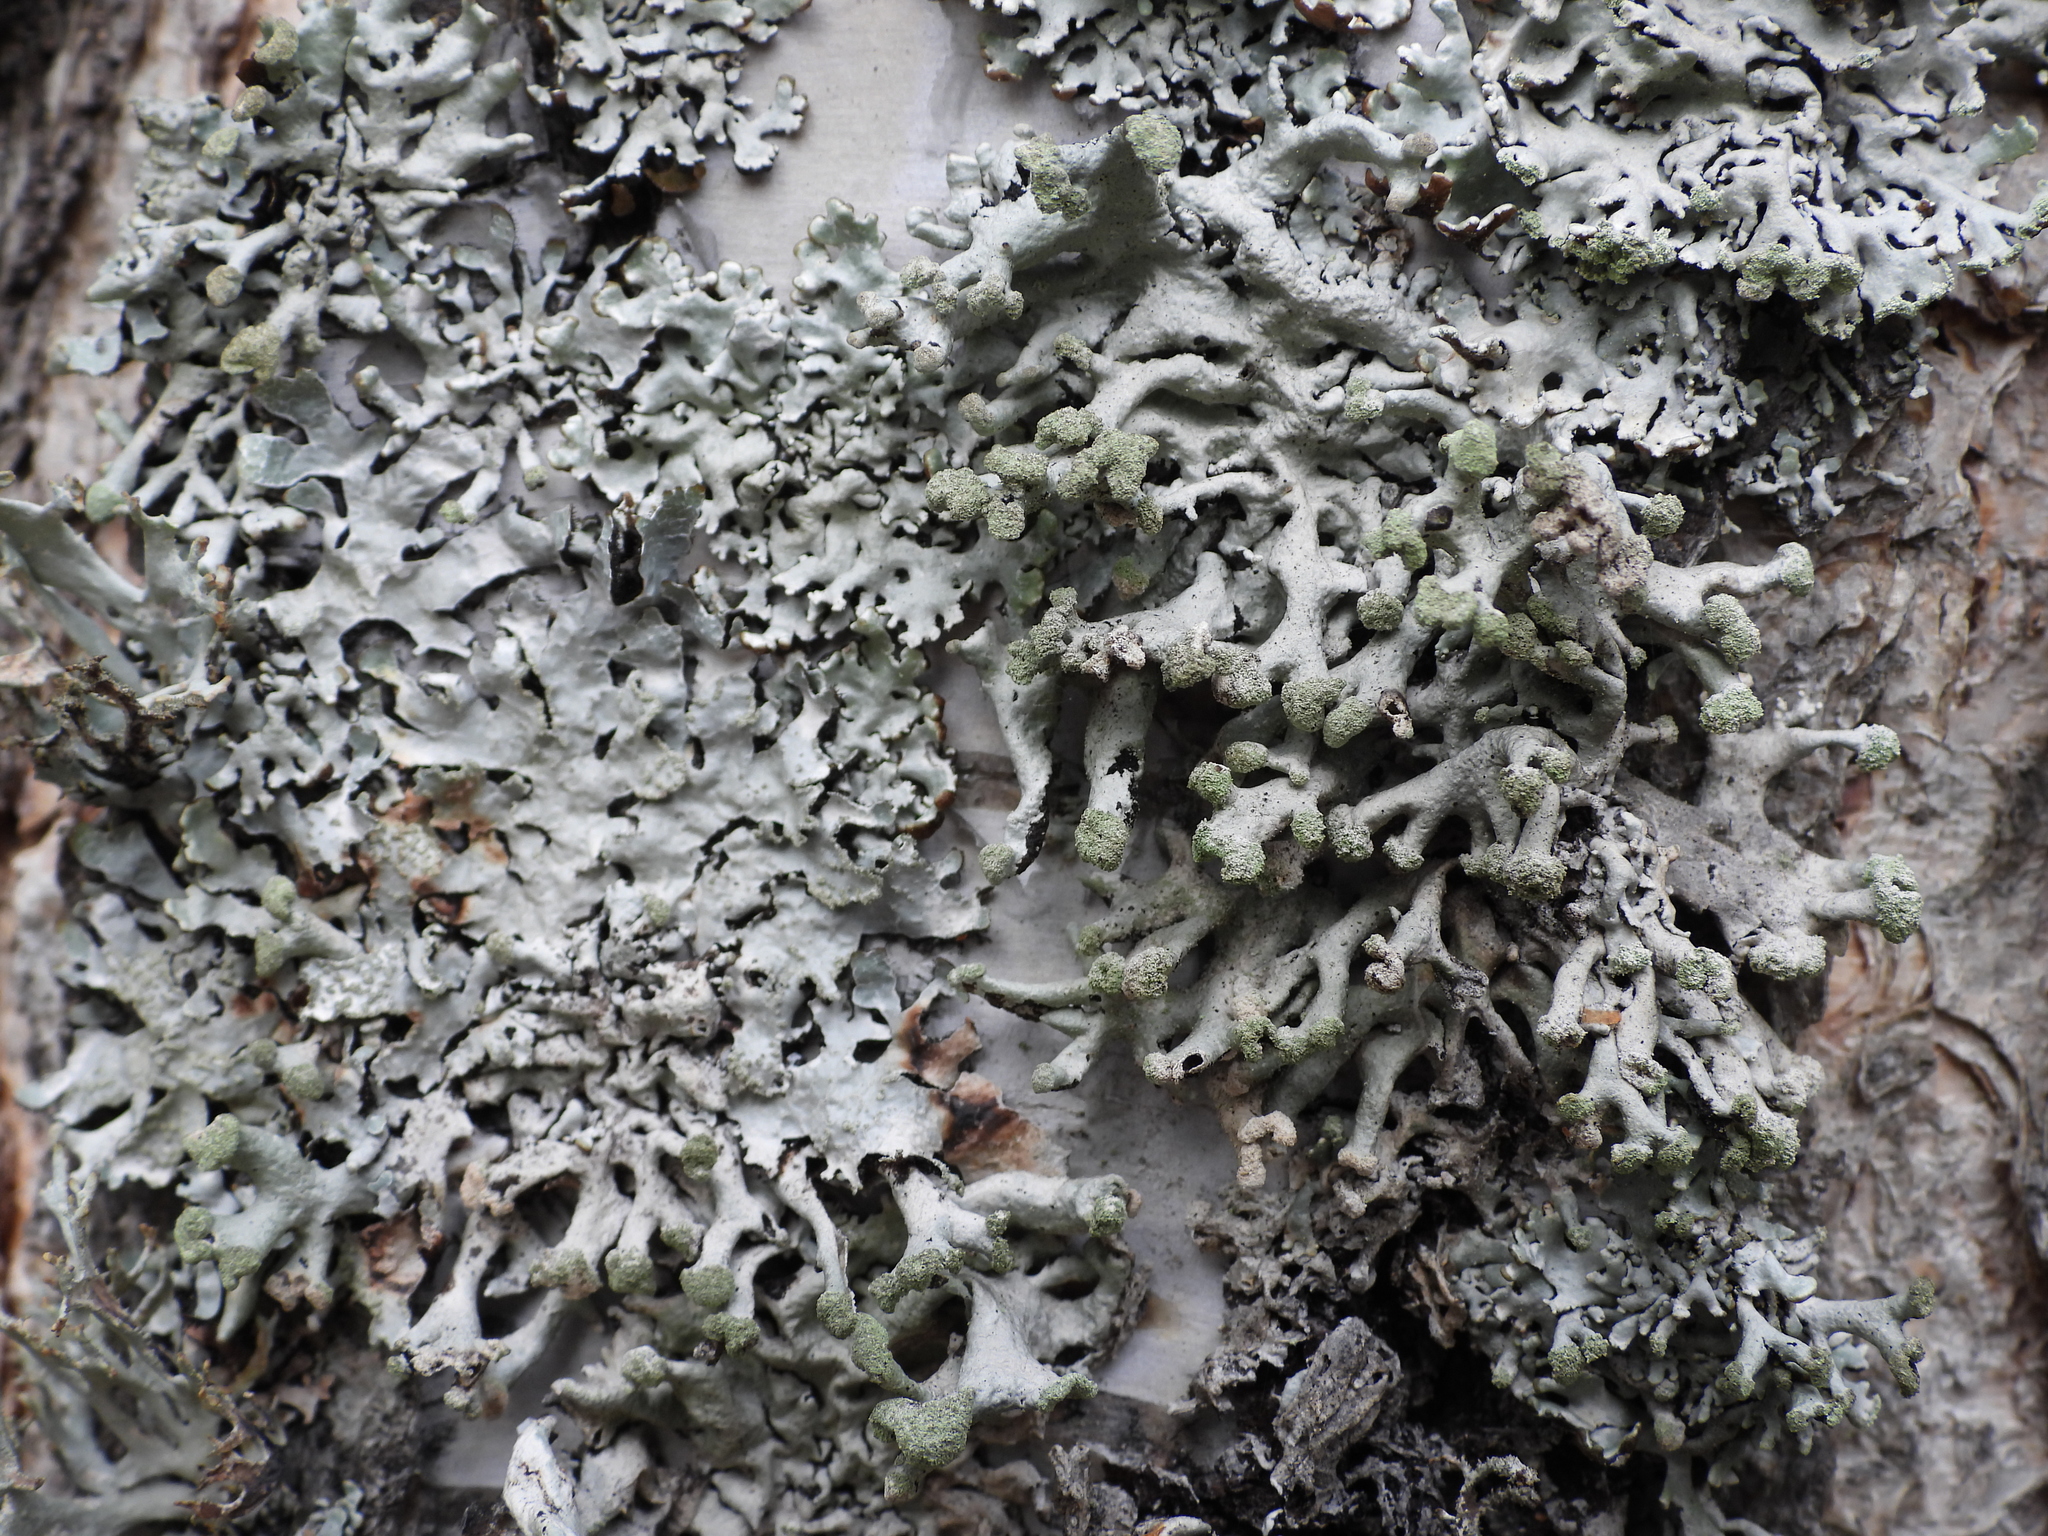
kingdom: Fungi
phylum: Ascomycota
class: Lecanoromycetes
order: Lecanorales
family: Parmeliaceae
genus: Hypogymnia
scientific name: Hypogymnia tubulosa
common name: Powder-headed tube lichen
